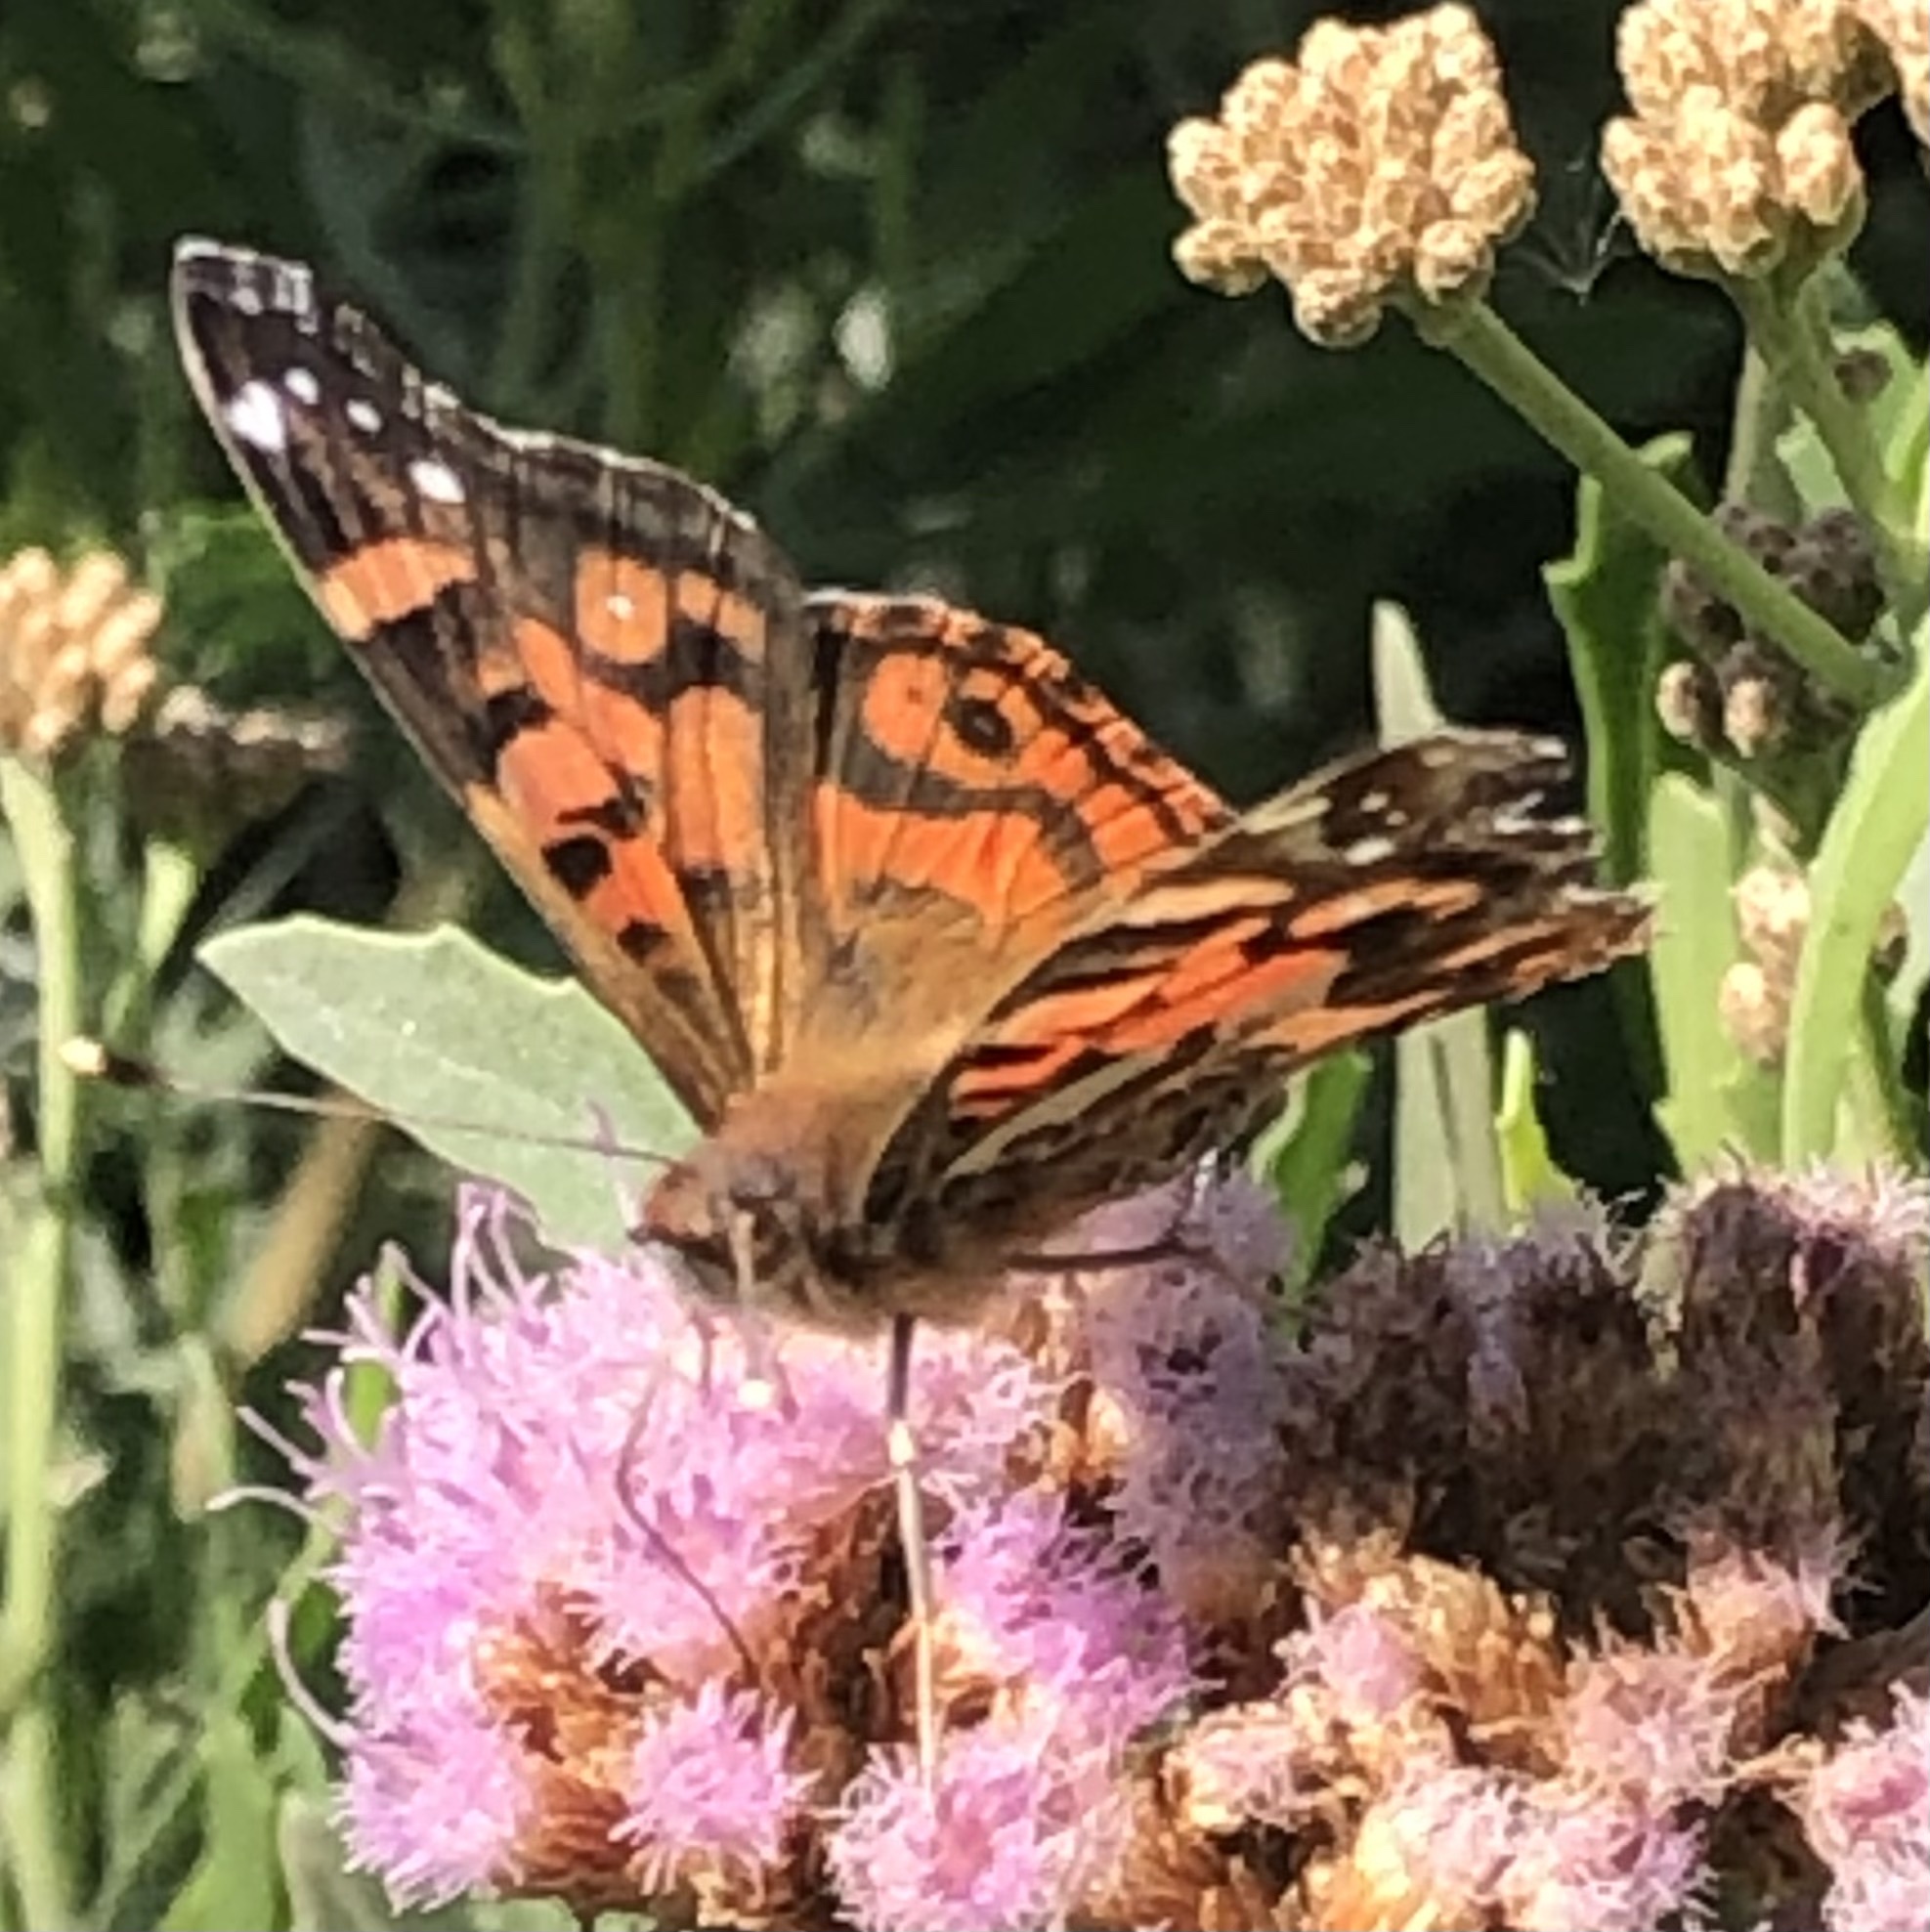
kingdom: Animalia
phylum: Arthropoda
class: Insecta
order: Lepidoptera
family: Nymphalidae
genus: Vanessa
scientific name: Vanessa terpsichore
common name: Chilean lady
